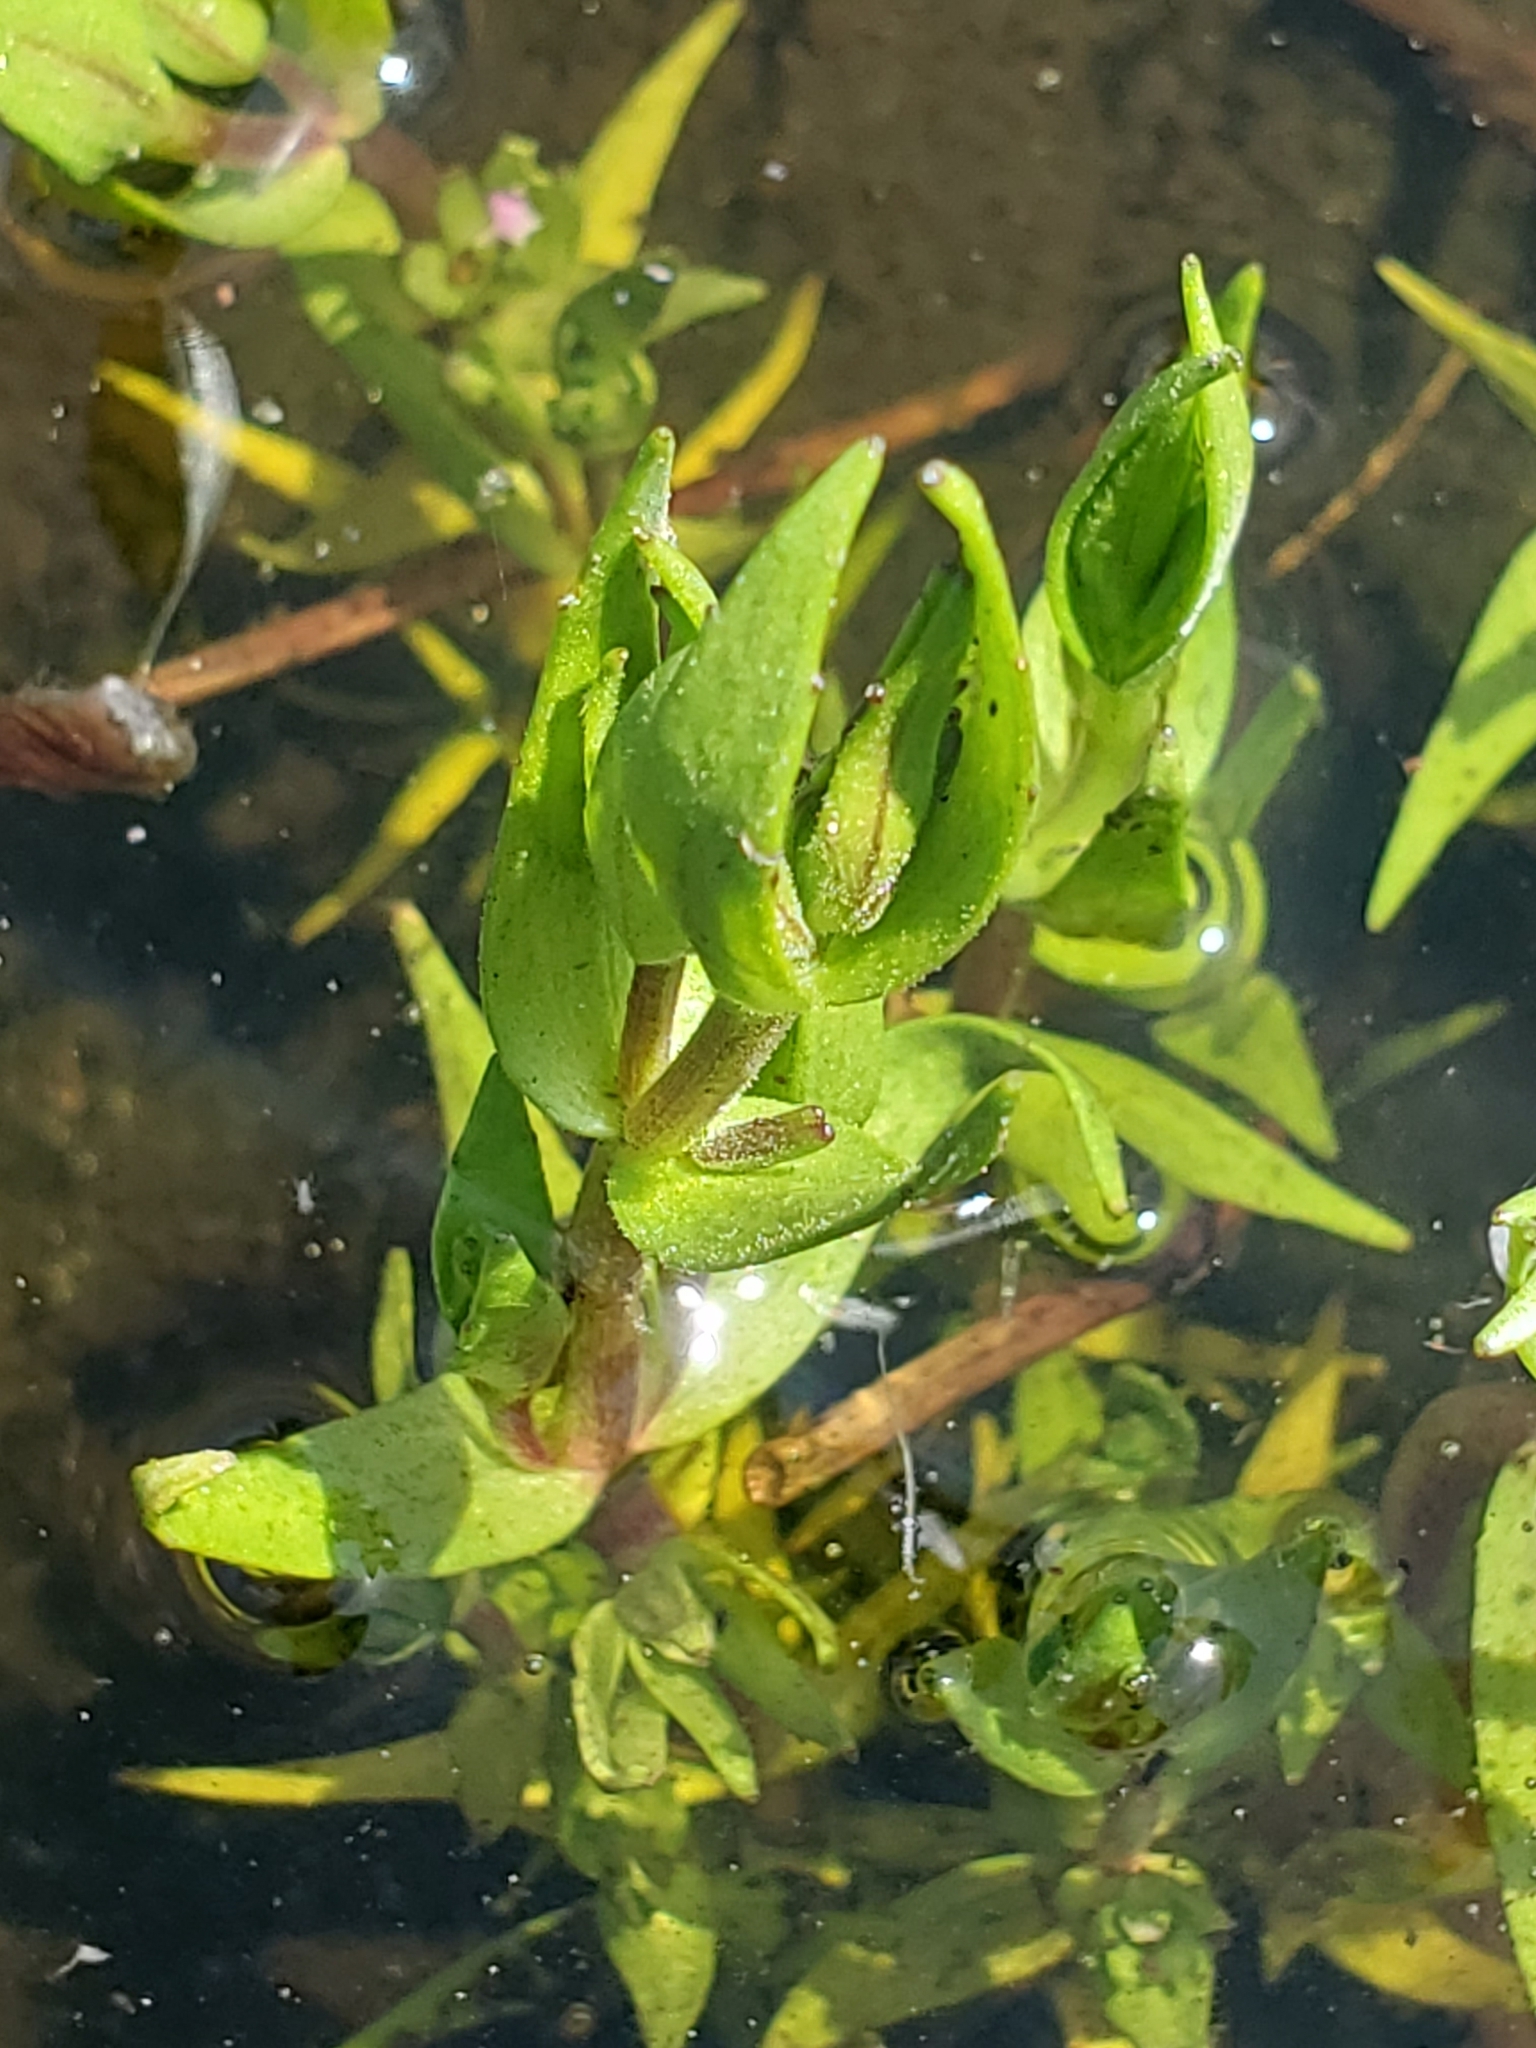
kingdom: Plantae
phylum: Tracheophyta
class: Magnoliopsida
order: Lamiales
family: Plantaginaceae
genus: Gratiola
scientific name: Gratiola ebracteata
